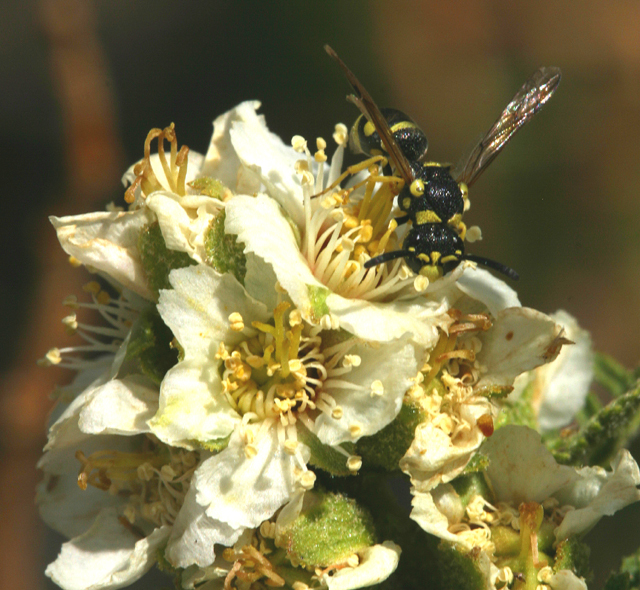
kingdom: Plantae
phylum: Tracheophyta
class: Magnoliopsida
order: Rosales
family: Rosaceae
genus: Chamaebatiaria
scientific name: Chamaebatiaria millefolium
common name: Fernbush
